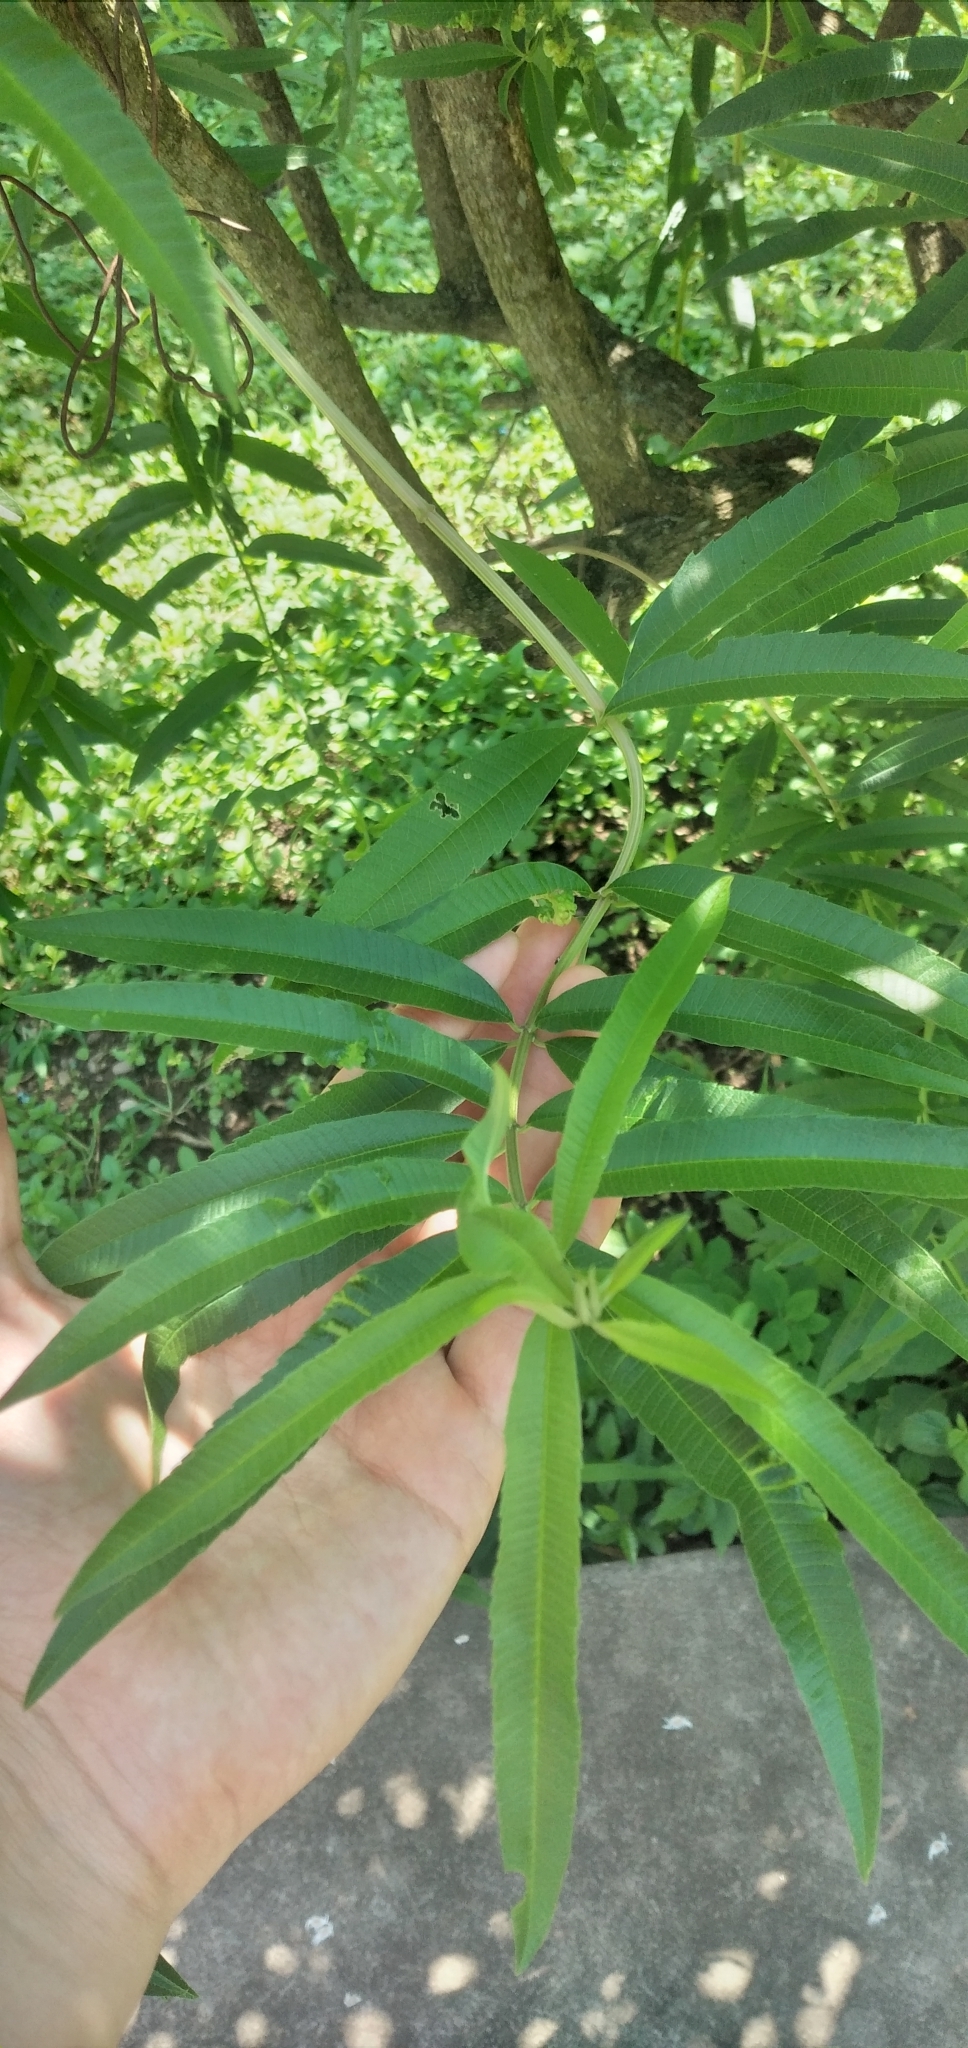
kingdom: Plantae
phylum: Tracheophyta
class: Magnoliopsida
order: Lamiales
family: Verbenaceae
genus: Aloysia
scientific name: Aloysia citrodora
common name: Lemon beebrush
